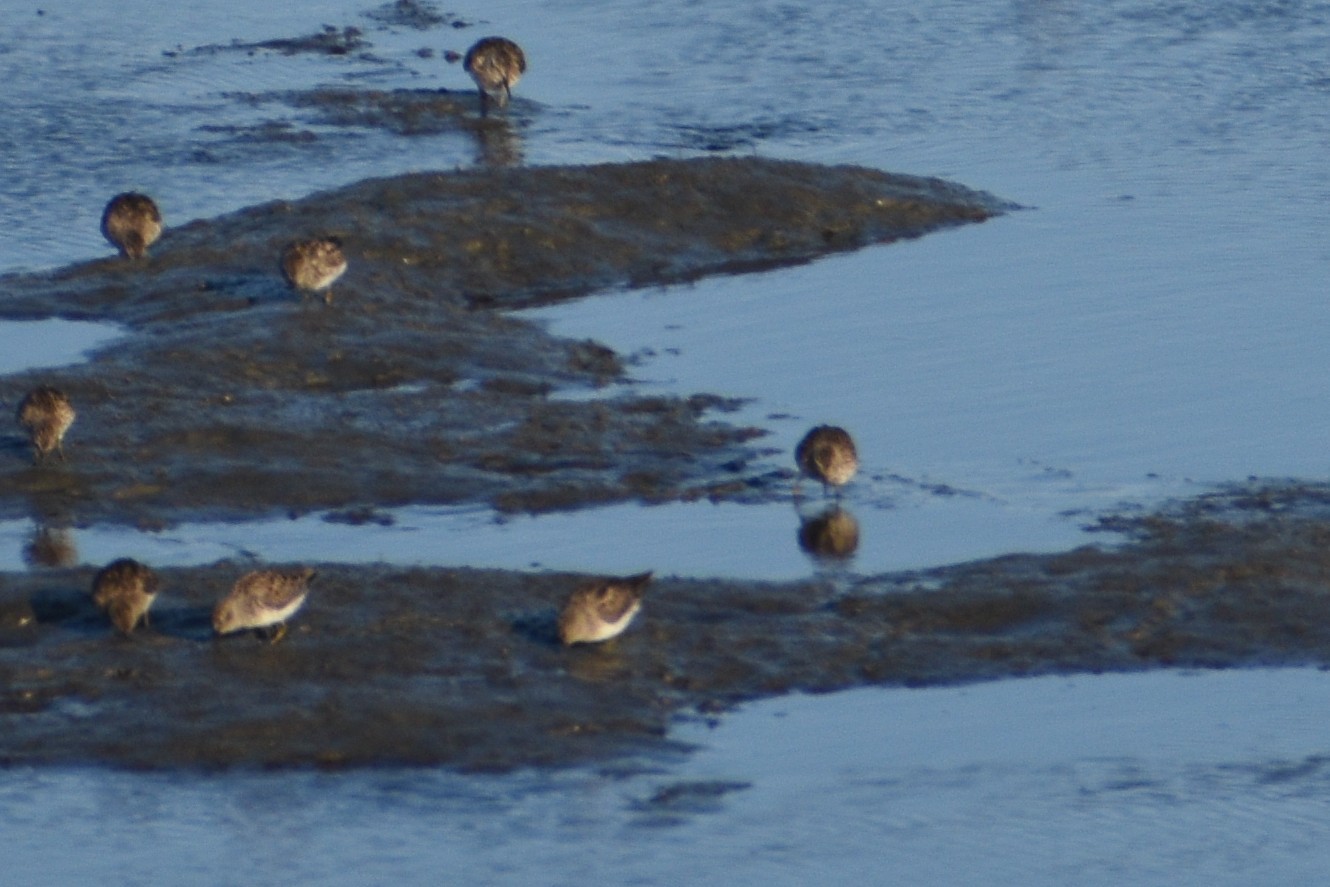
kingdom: Animalia
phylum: Chordata
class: Aves
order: Charadriiformes
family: Scolopacidae
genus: Calidris
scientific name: Calidris minutilla
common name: Least sandpiper
